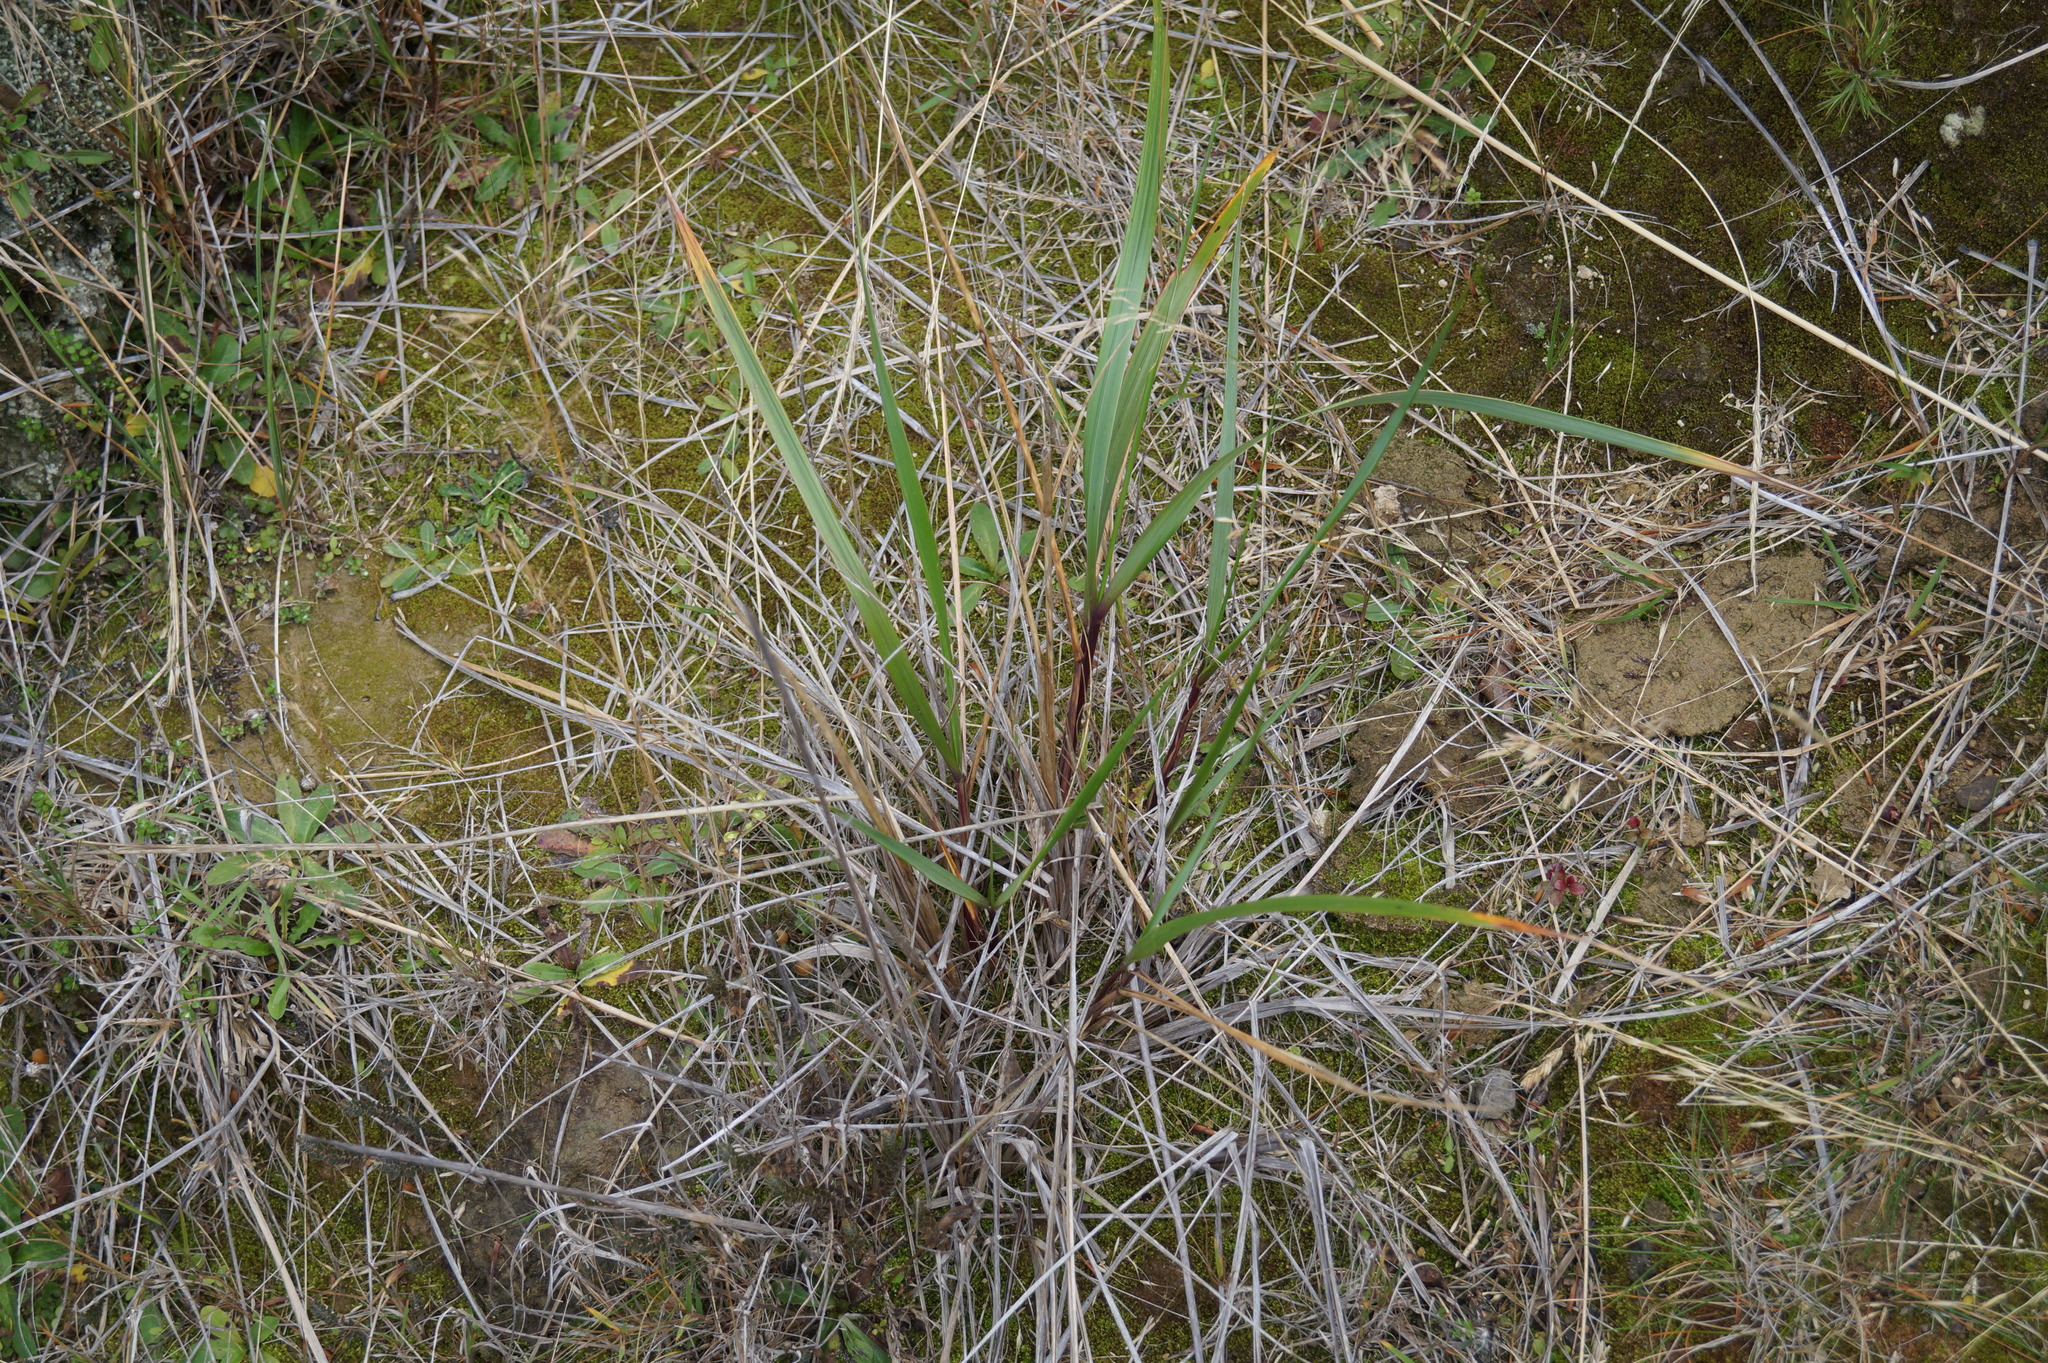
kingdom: Plantae
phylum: Tracheophyta
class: Liliopsida
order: Poales
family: Poaceae
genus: Glyceria
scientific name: Glyceria maxima
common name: Reed mannagrass
